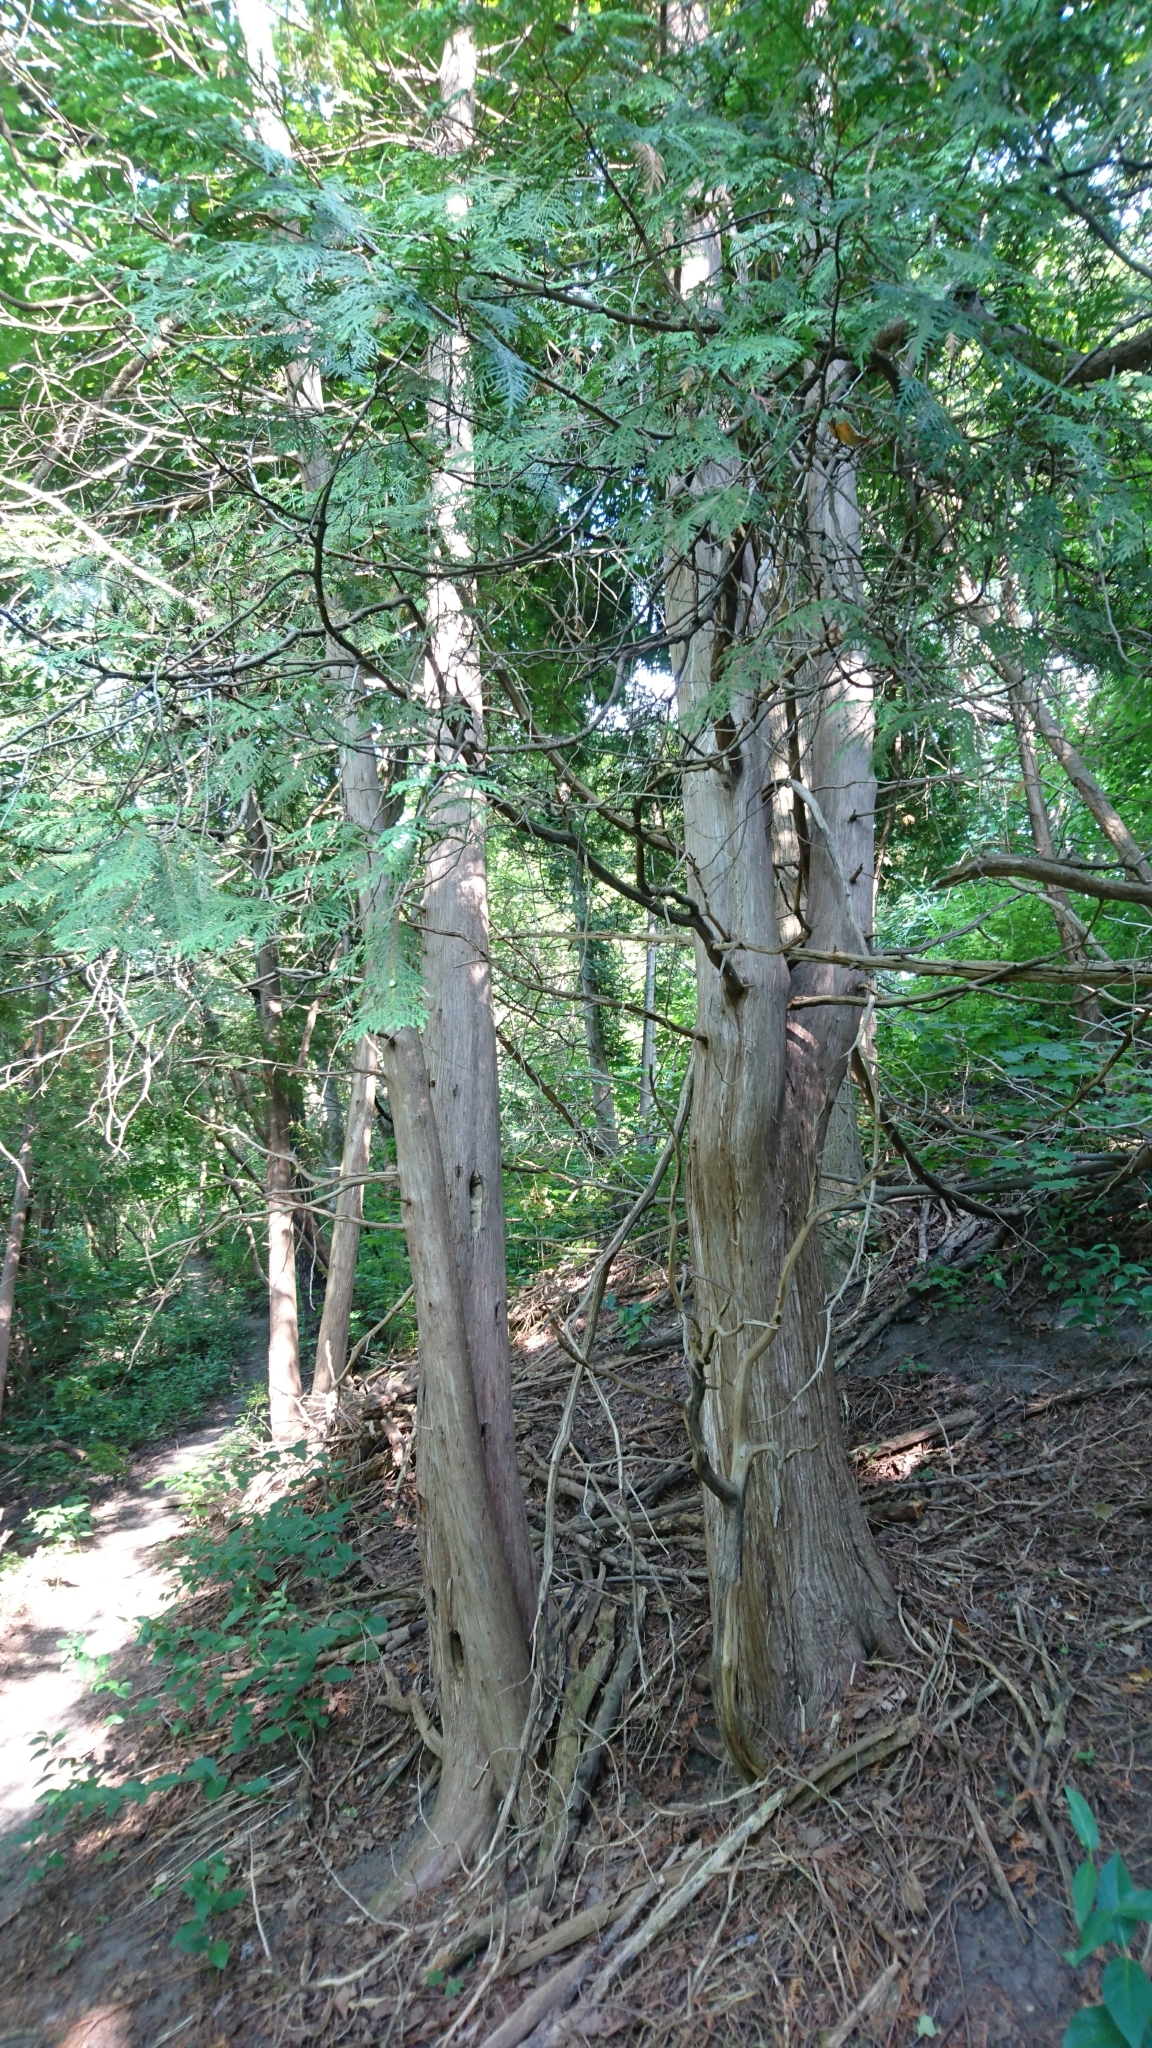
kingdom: Plantae
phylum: Tracheophyta
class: Pinopsida
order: Pinales
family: Cupressaceae
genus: Thuja
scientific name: Thuja occidentalis
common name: Northern white-cedar
